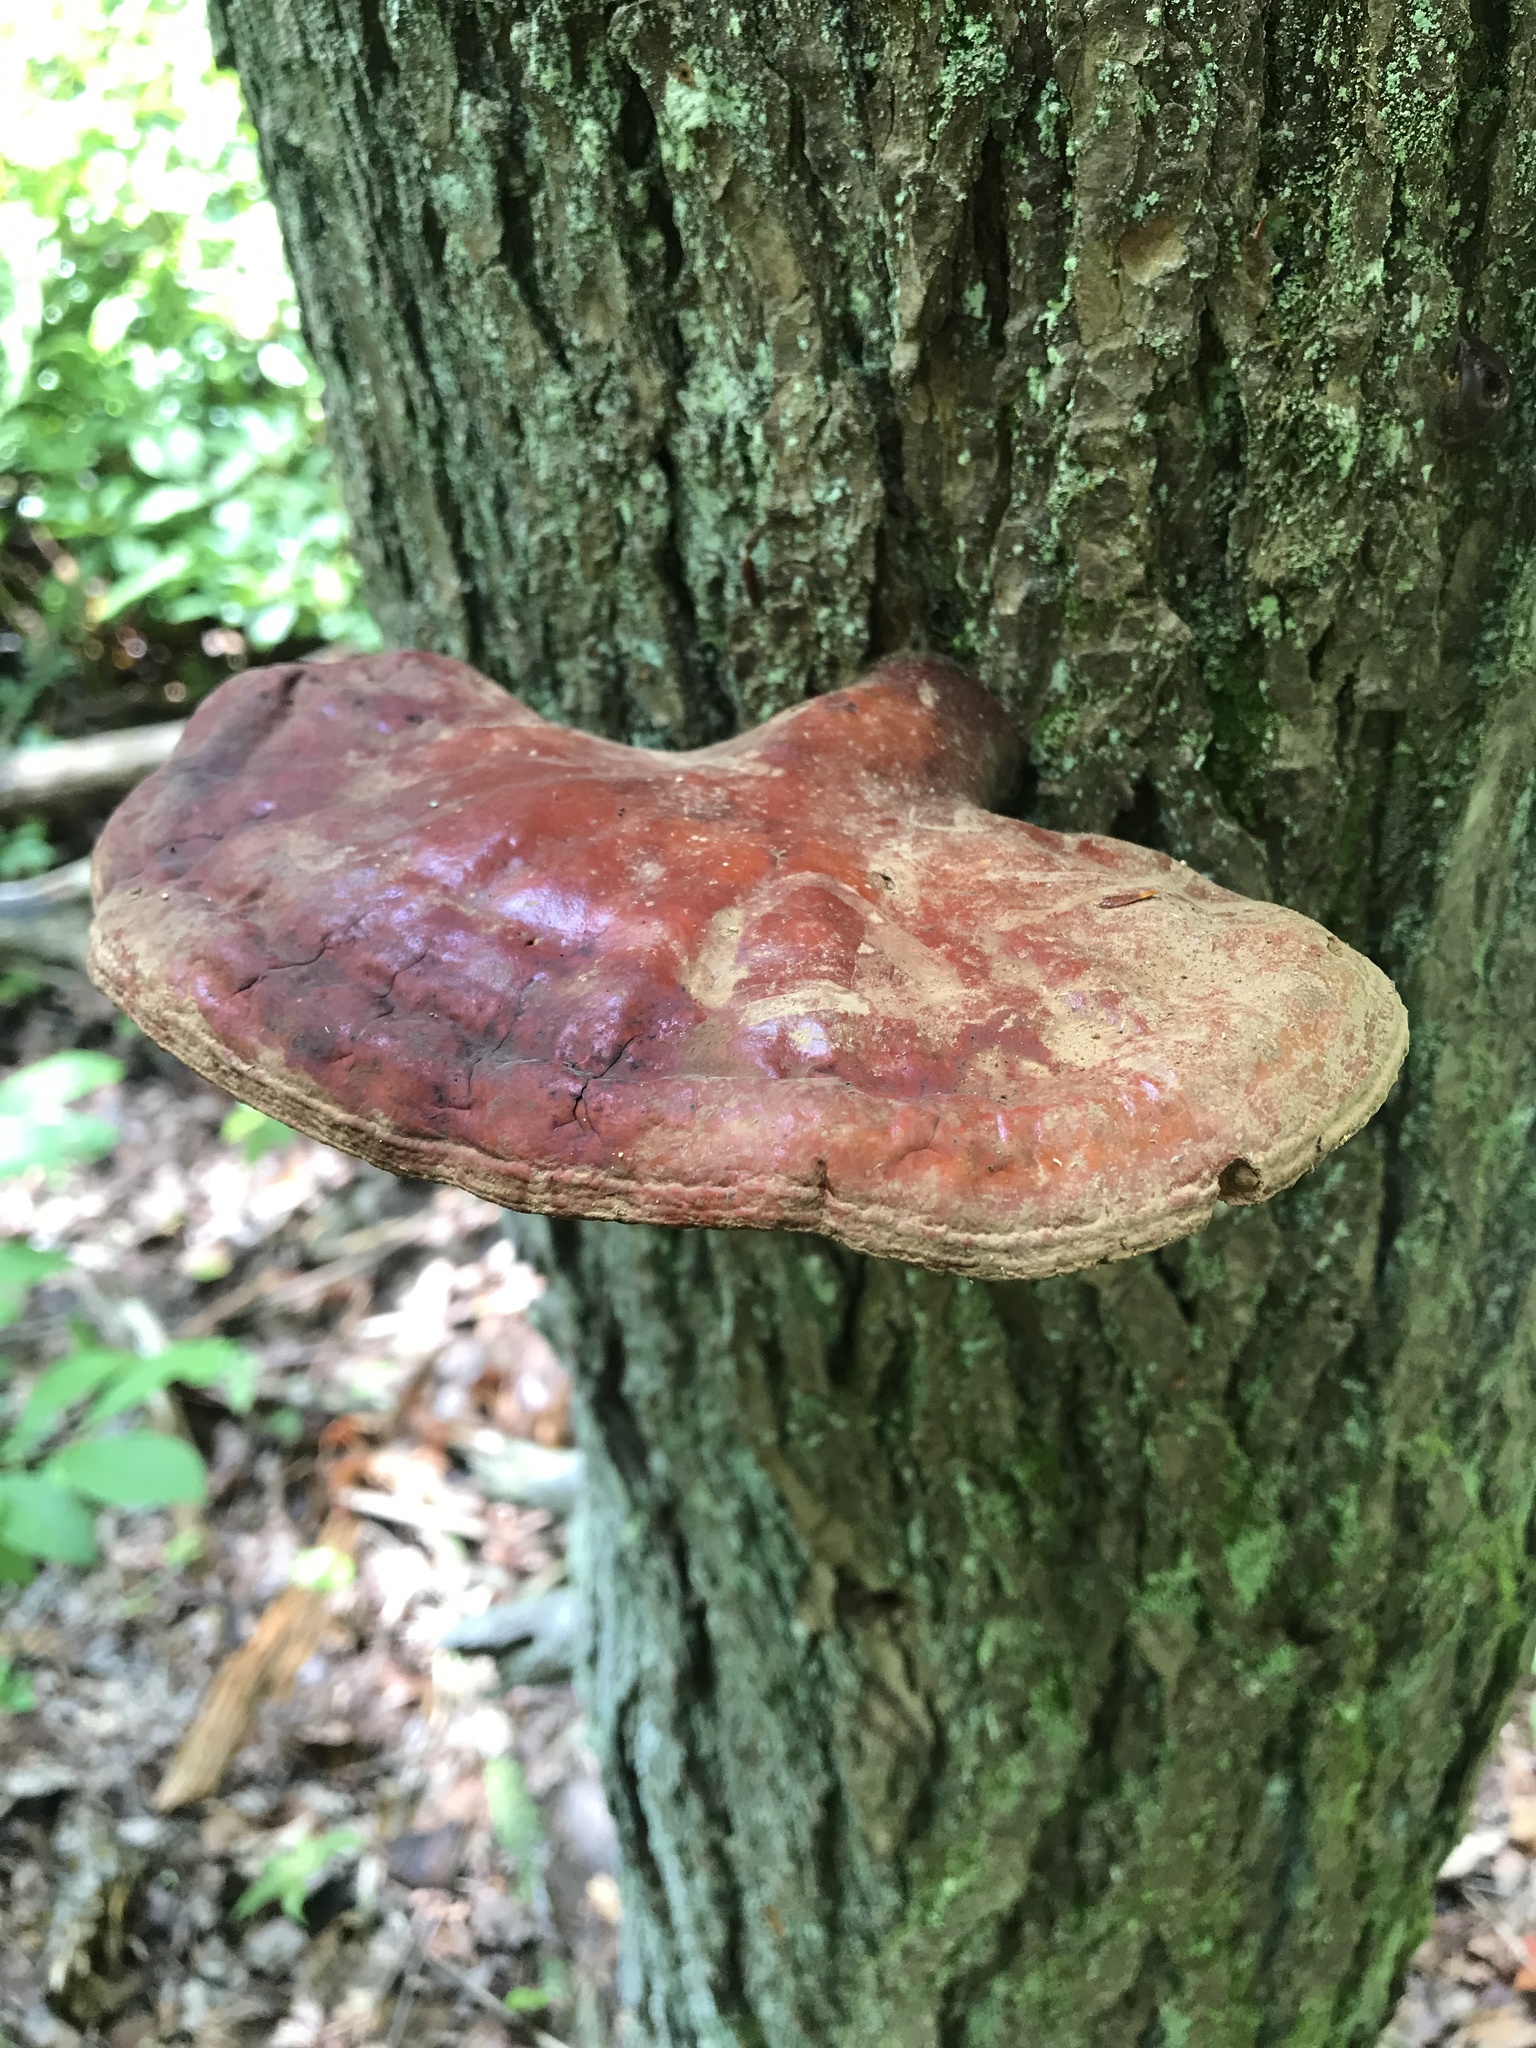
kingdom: Fungi
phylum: Basidiomycota
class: Agaricomycetes
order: Polyporales
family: Polyporaceae
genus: Ganoderma
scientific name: Ganoderma tsugae
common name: Hemlock varnish shelf
